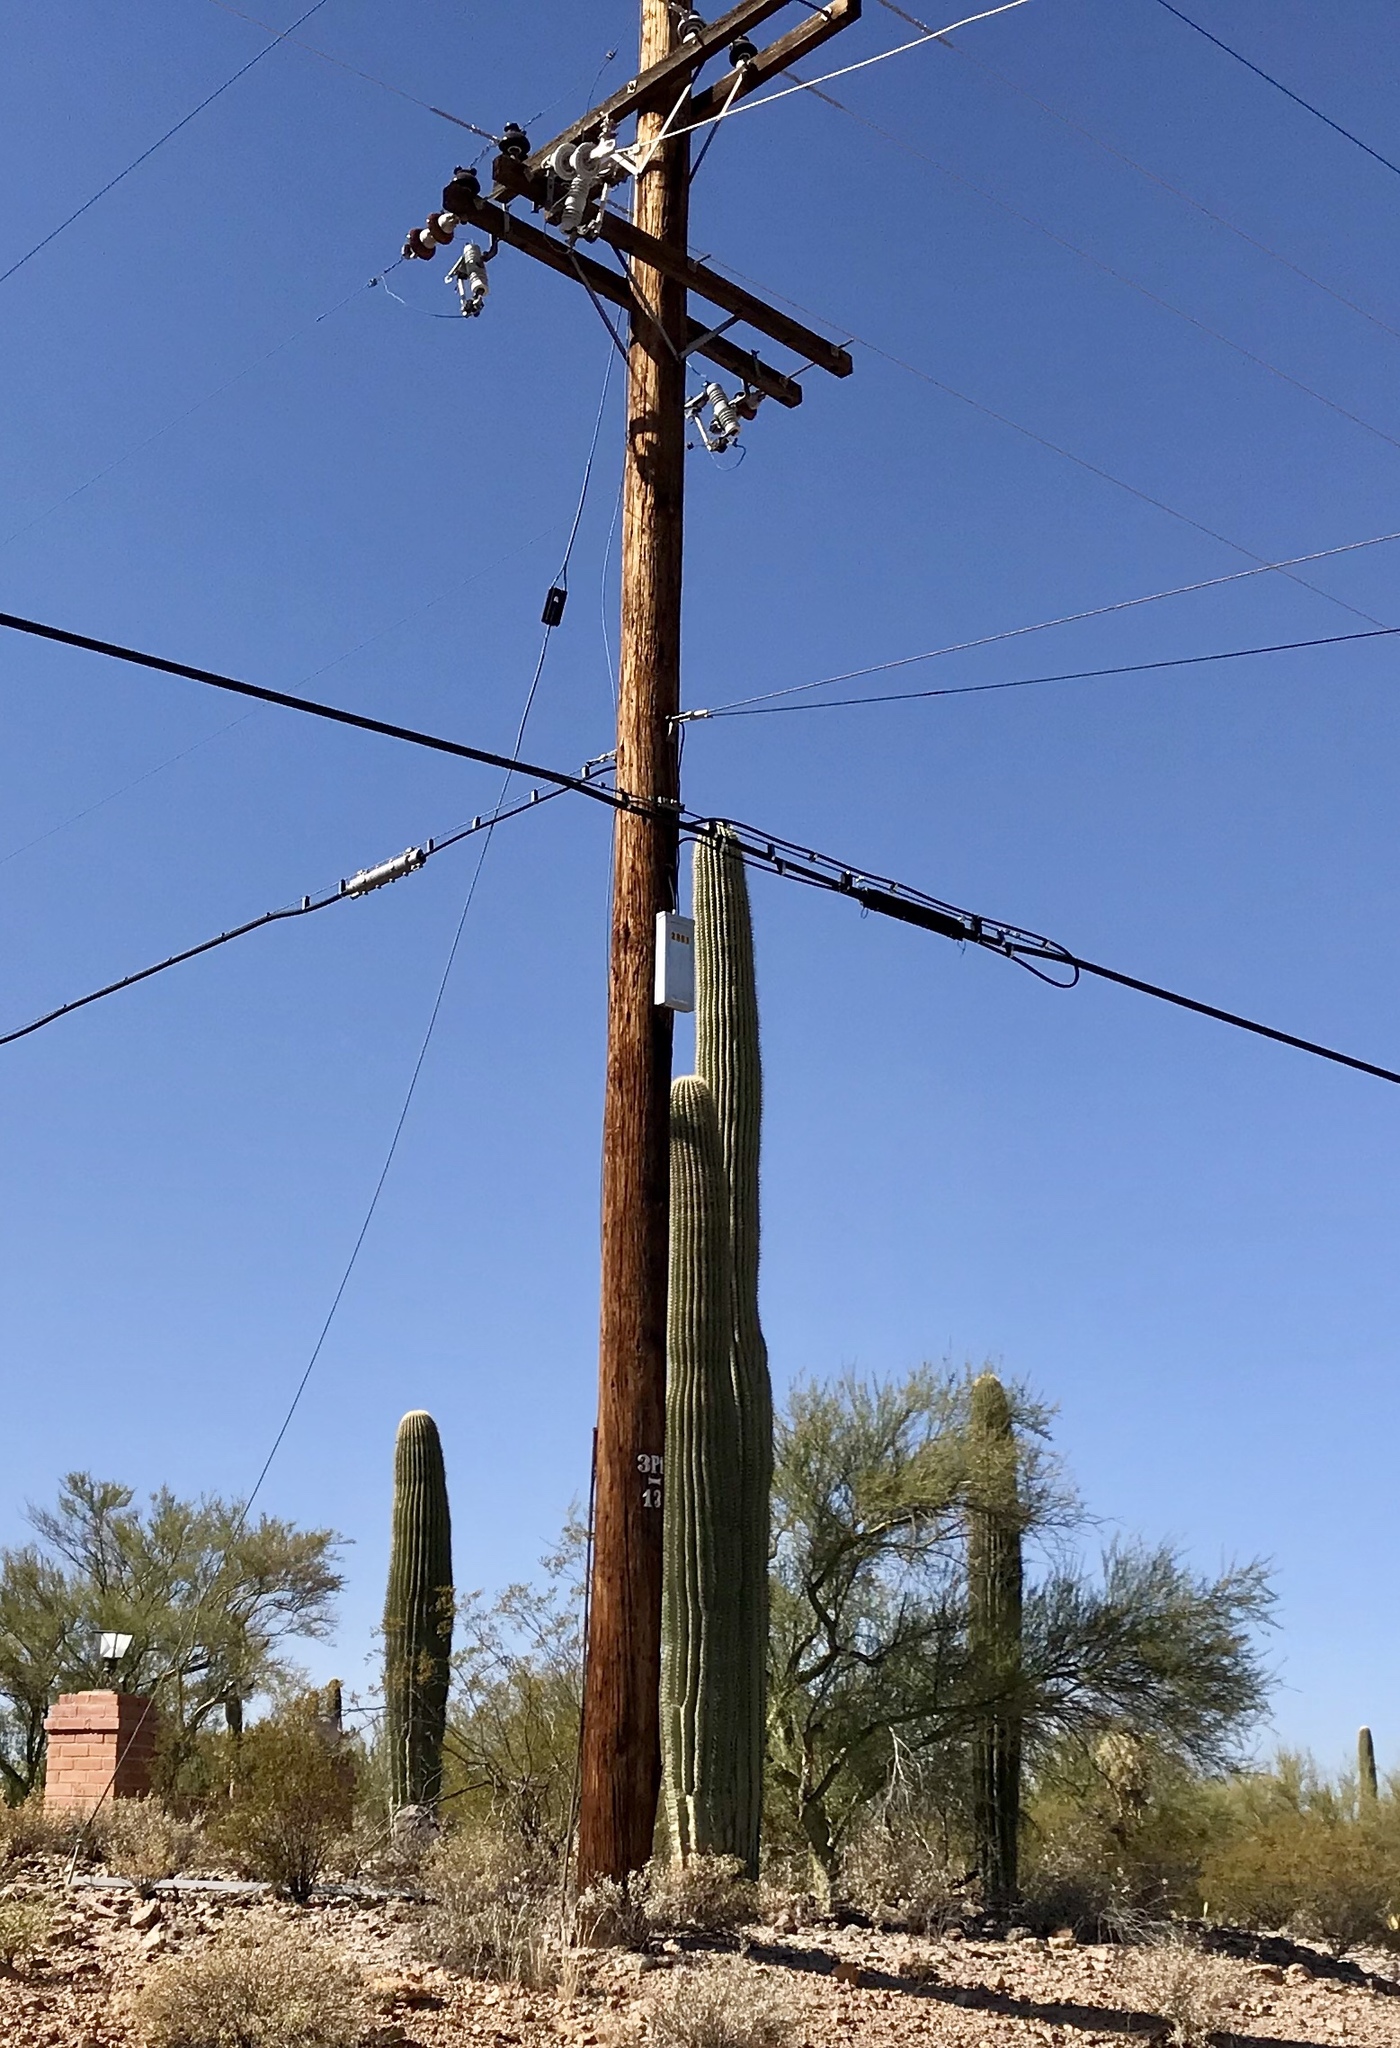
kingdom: Plantae
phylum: Tracheophyta
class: Magnoliopsida
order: Caryophyllales
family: Cactaceae
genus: Carnegiea
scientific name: Carnegiea gigantea
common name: Saguaro
